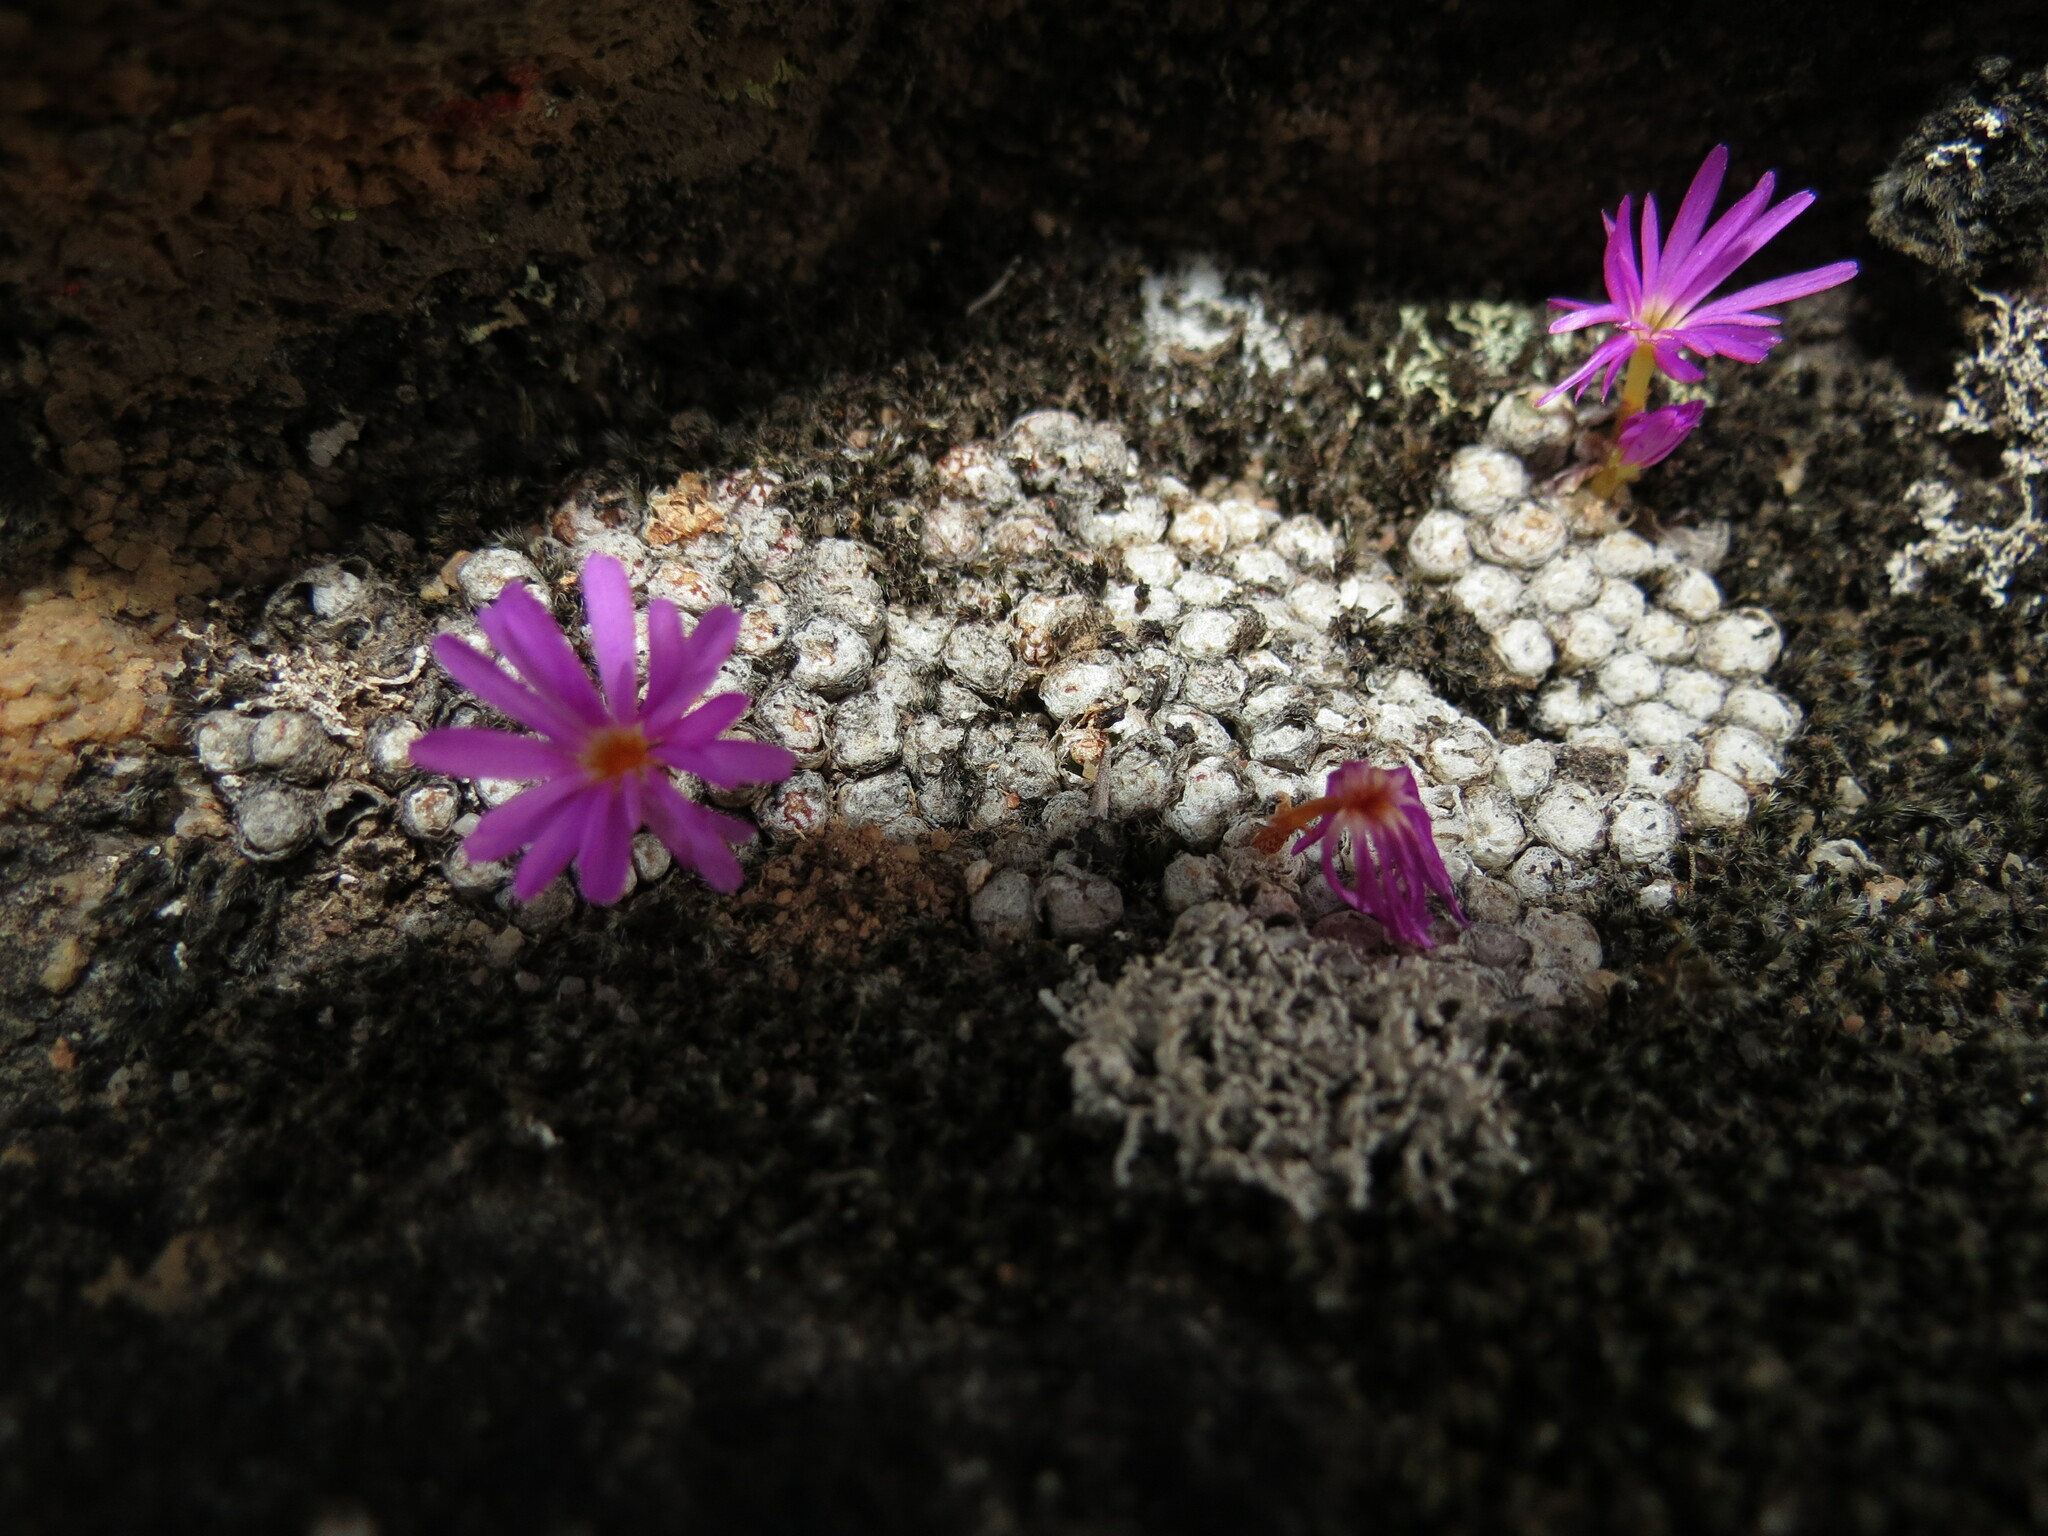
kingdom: Plantae
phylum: Tracheophyta
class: Magnoliopsida
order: Caryophyllales
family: Aizoaceae
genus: Conophytum
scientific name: Conophytum minusculum
